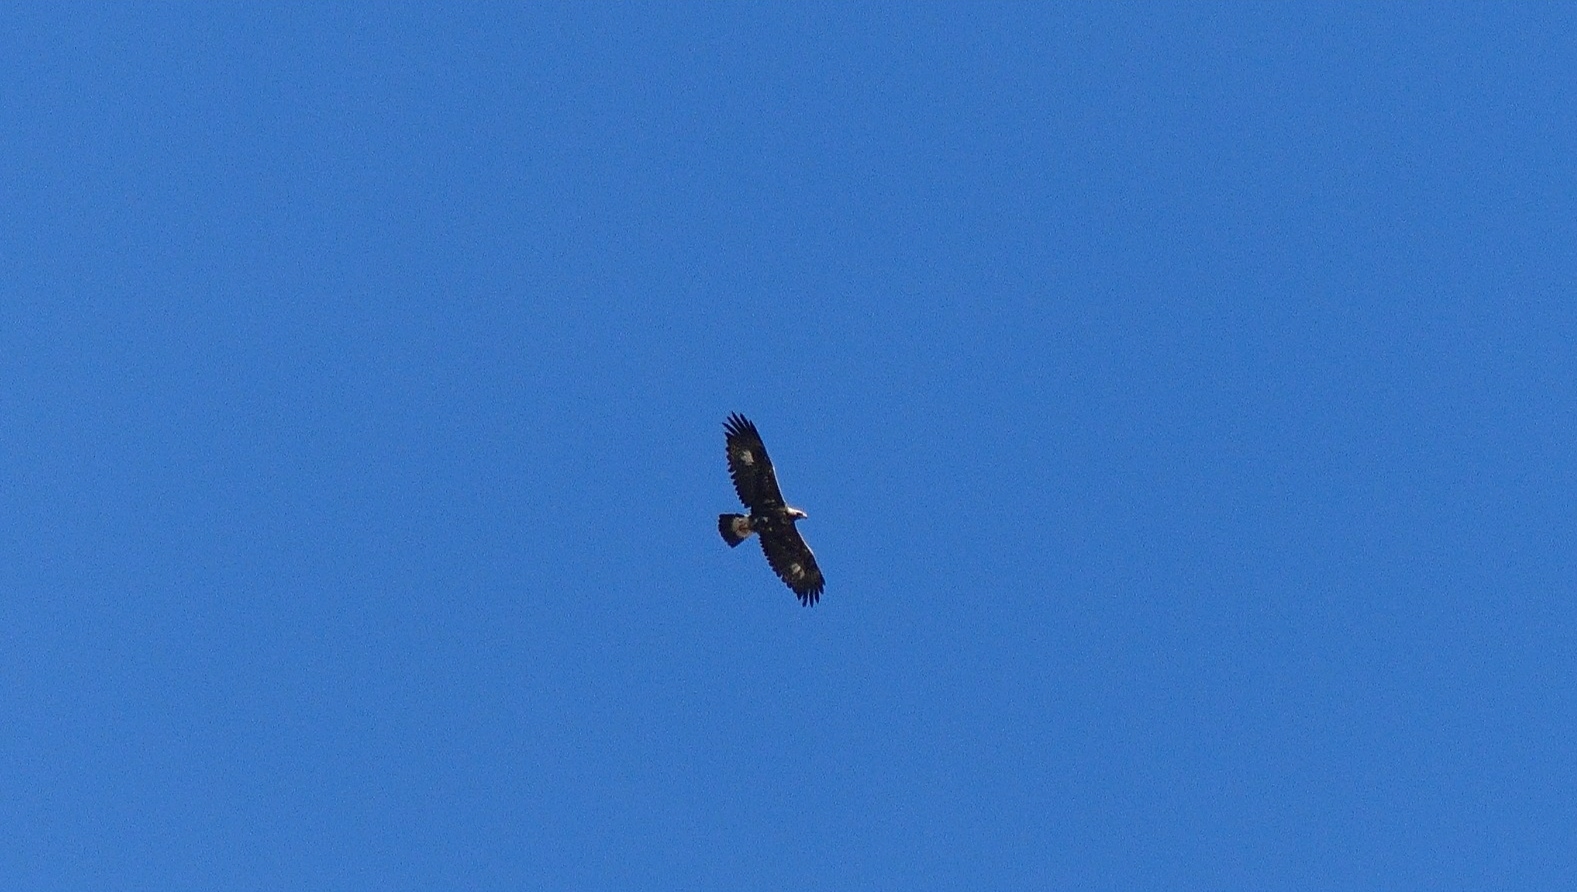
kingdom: Animalia
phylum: Chordata
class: Aves
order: Accipitriformes
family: Accipitridae
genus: Aquila
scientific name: Aquila chrysaetos
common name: Golden eagle
